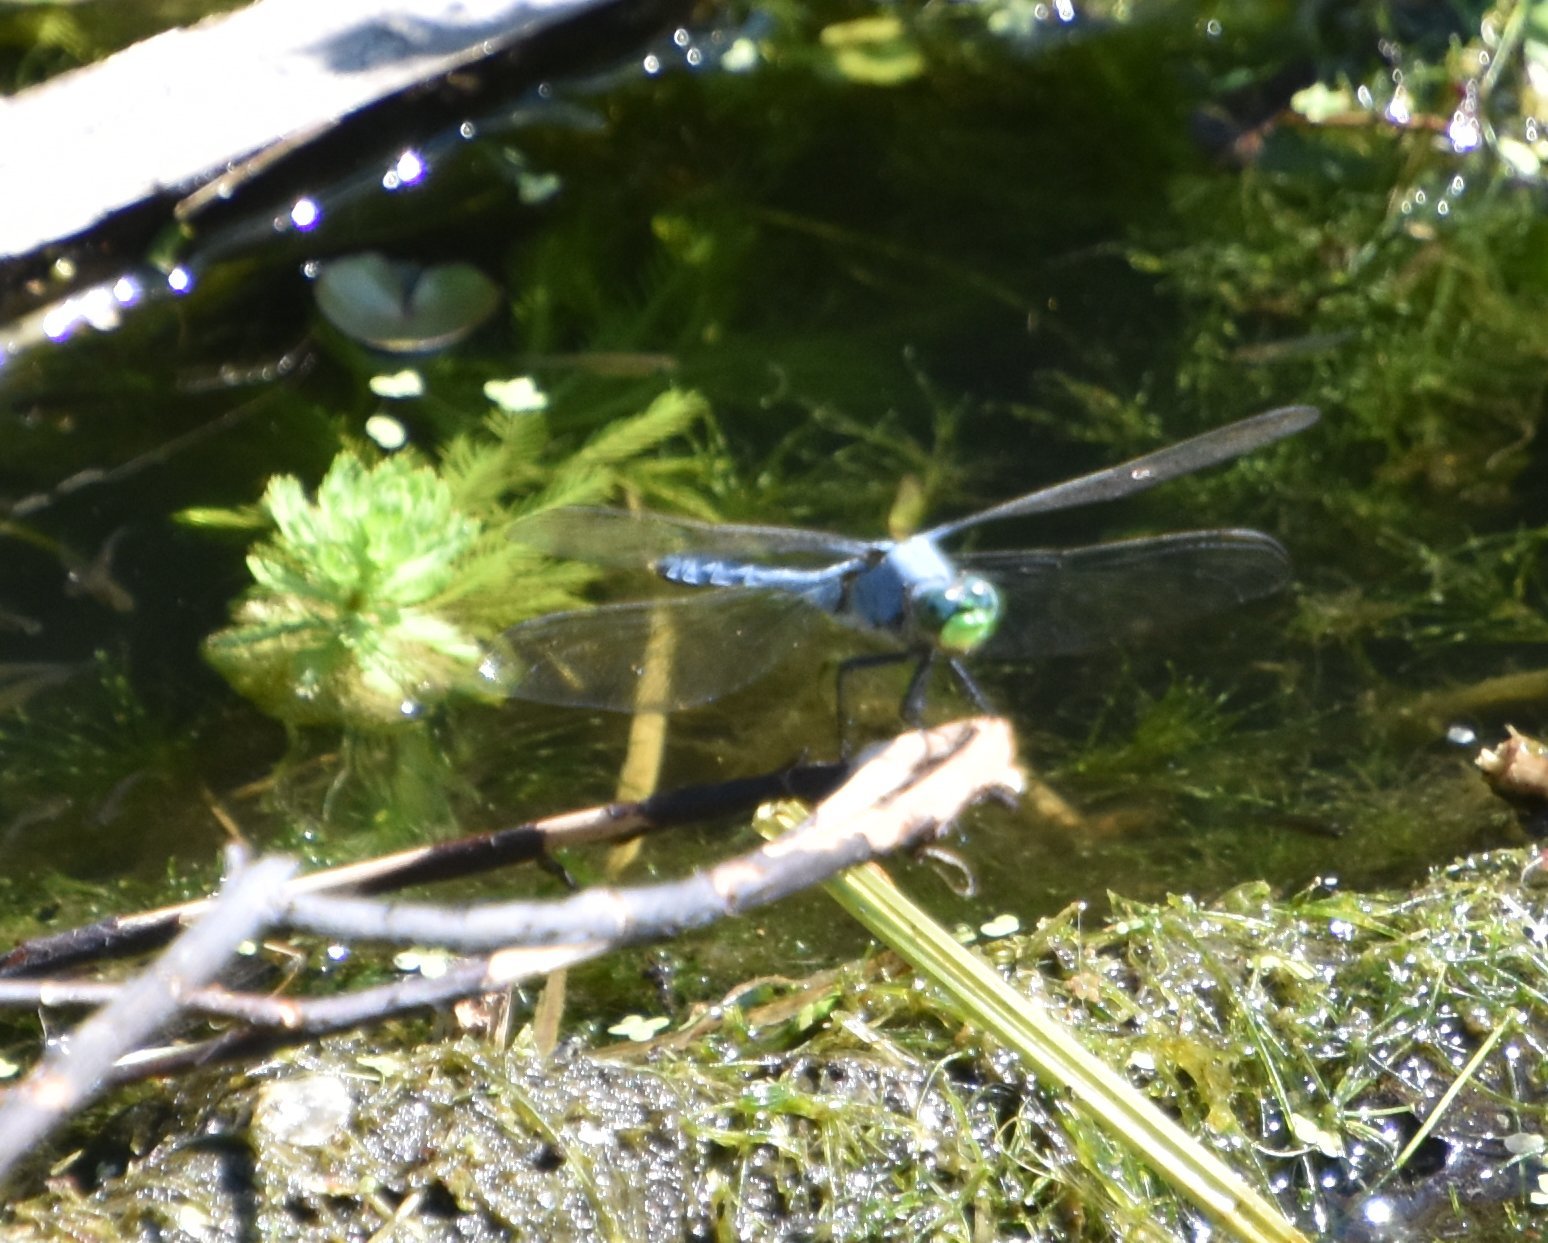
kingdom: Animalia
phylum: Arthropoda
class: Insecta
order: Odonata
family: Libellulidae
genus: Erythemis
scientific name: Erythemis simplicicollis
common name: Eastern pondhawk
